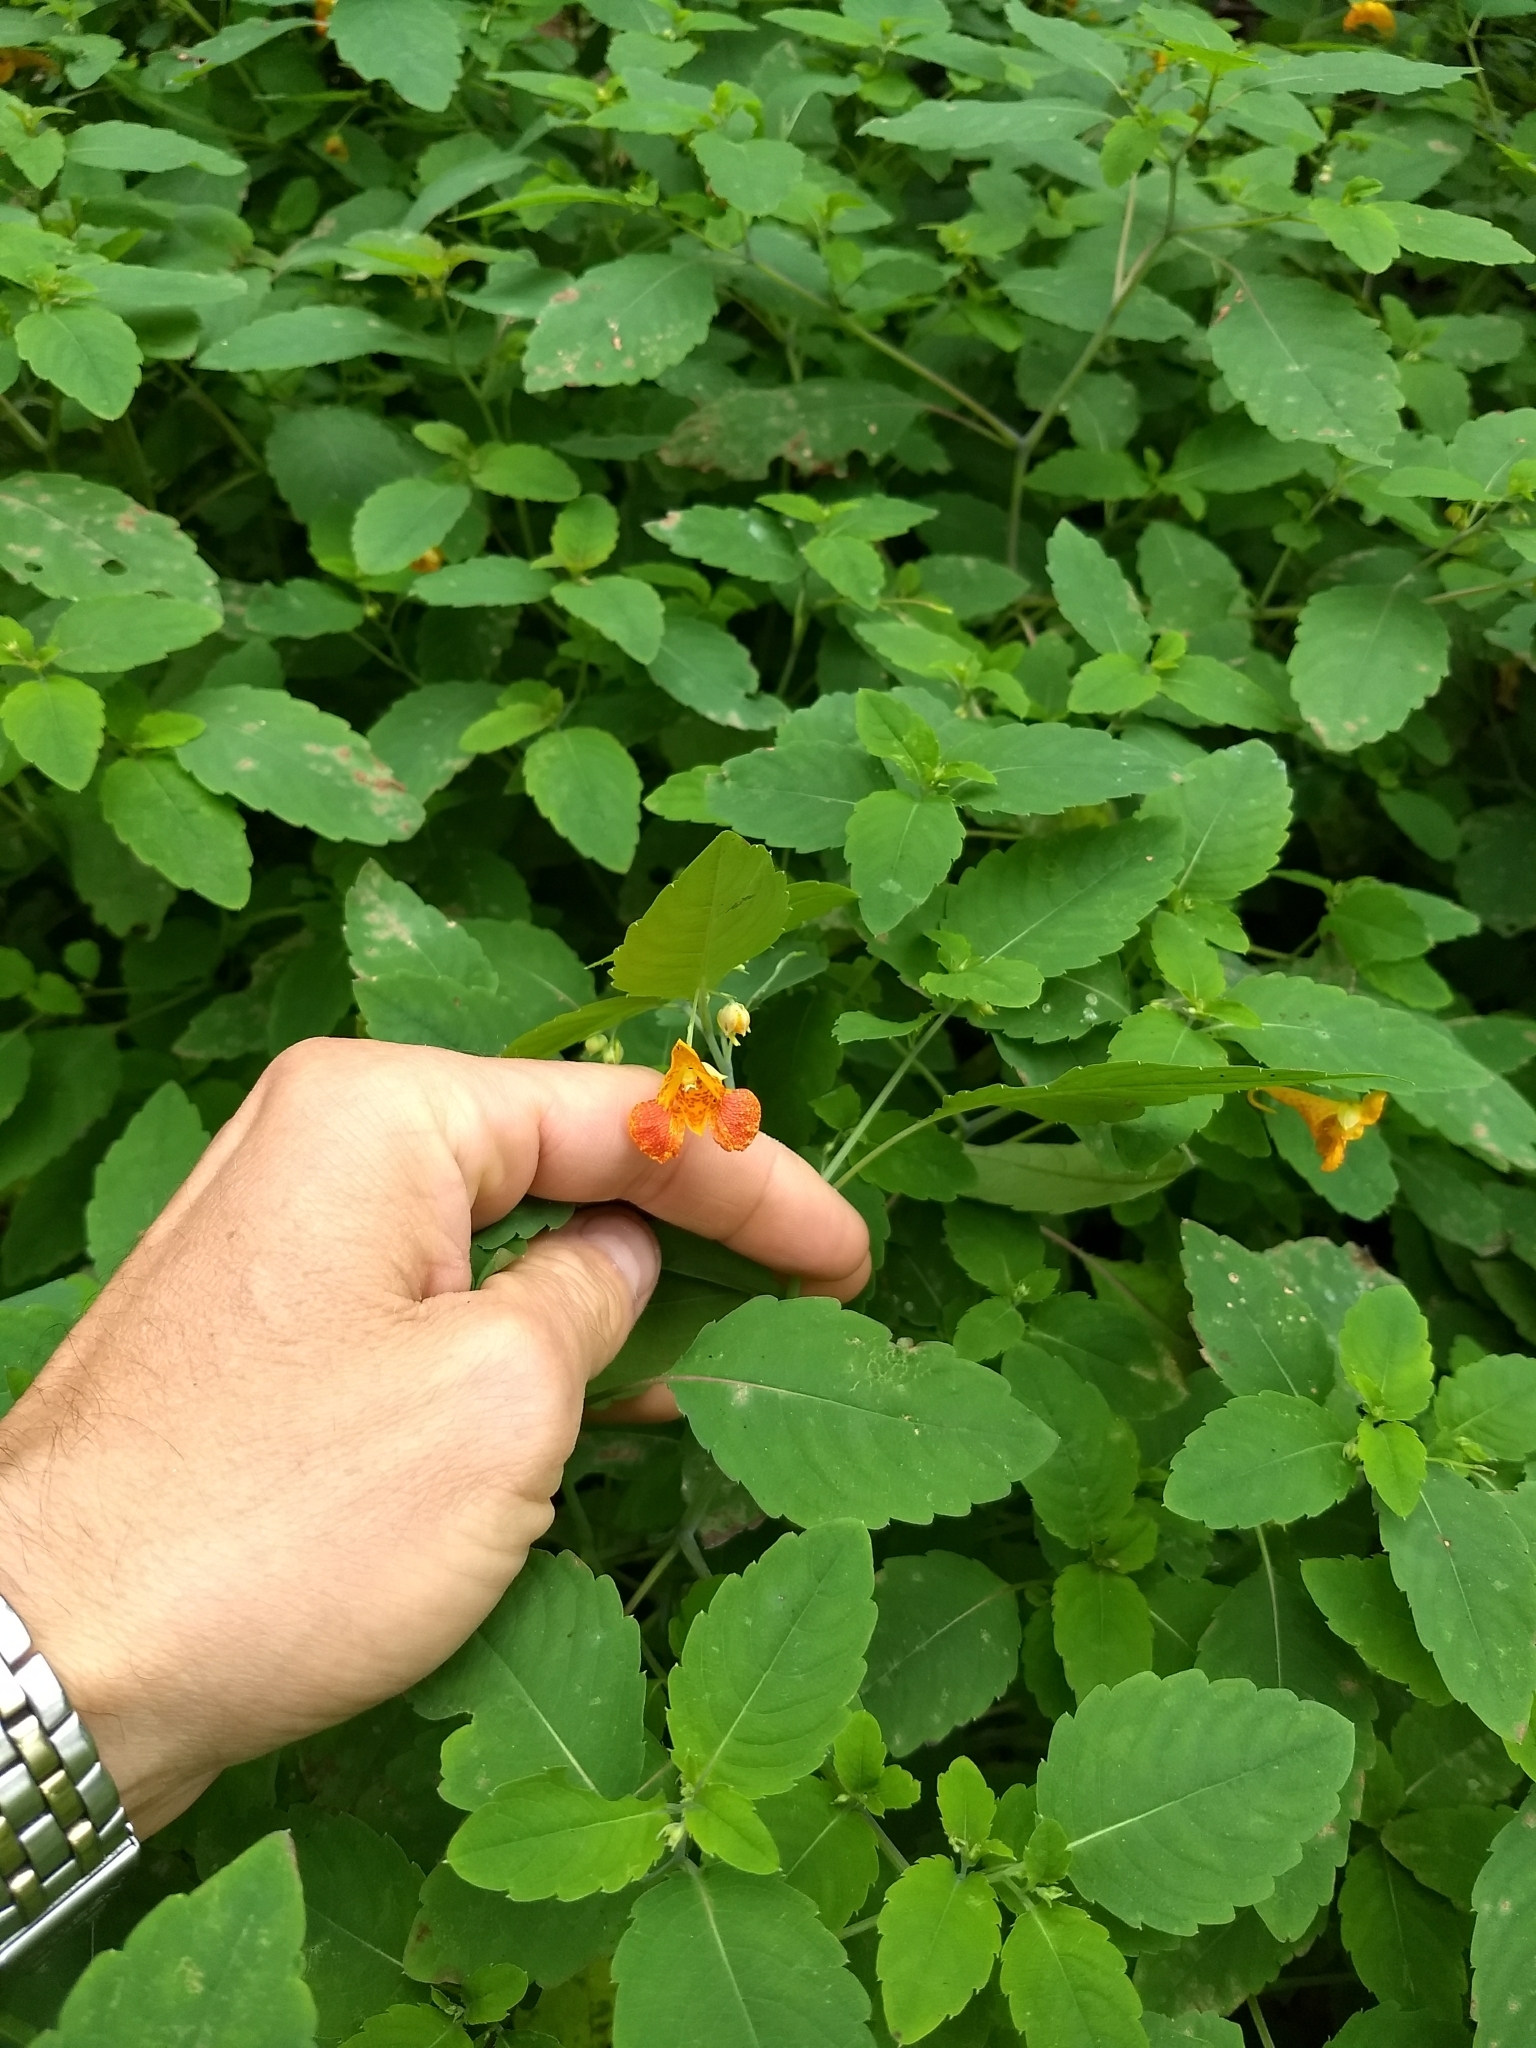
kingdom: Plantae
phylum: Tracheophyta
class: Magnoliopsida
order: Ericales
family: Balsaminaceae
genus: Impatiens
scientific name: Impatiens capensis
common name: Orange balsam
